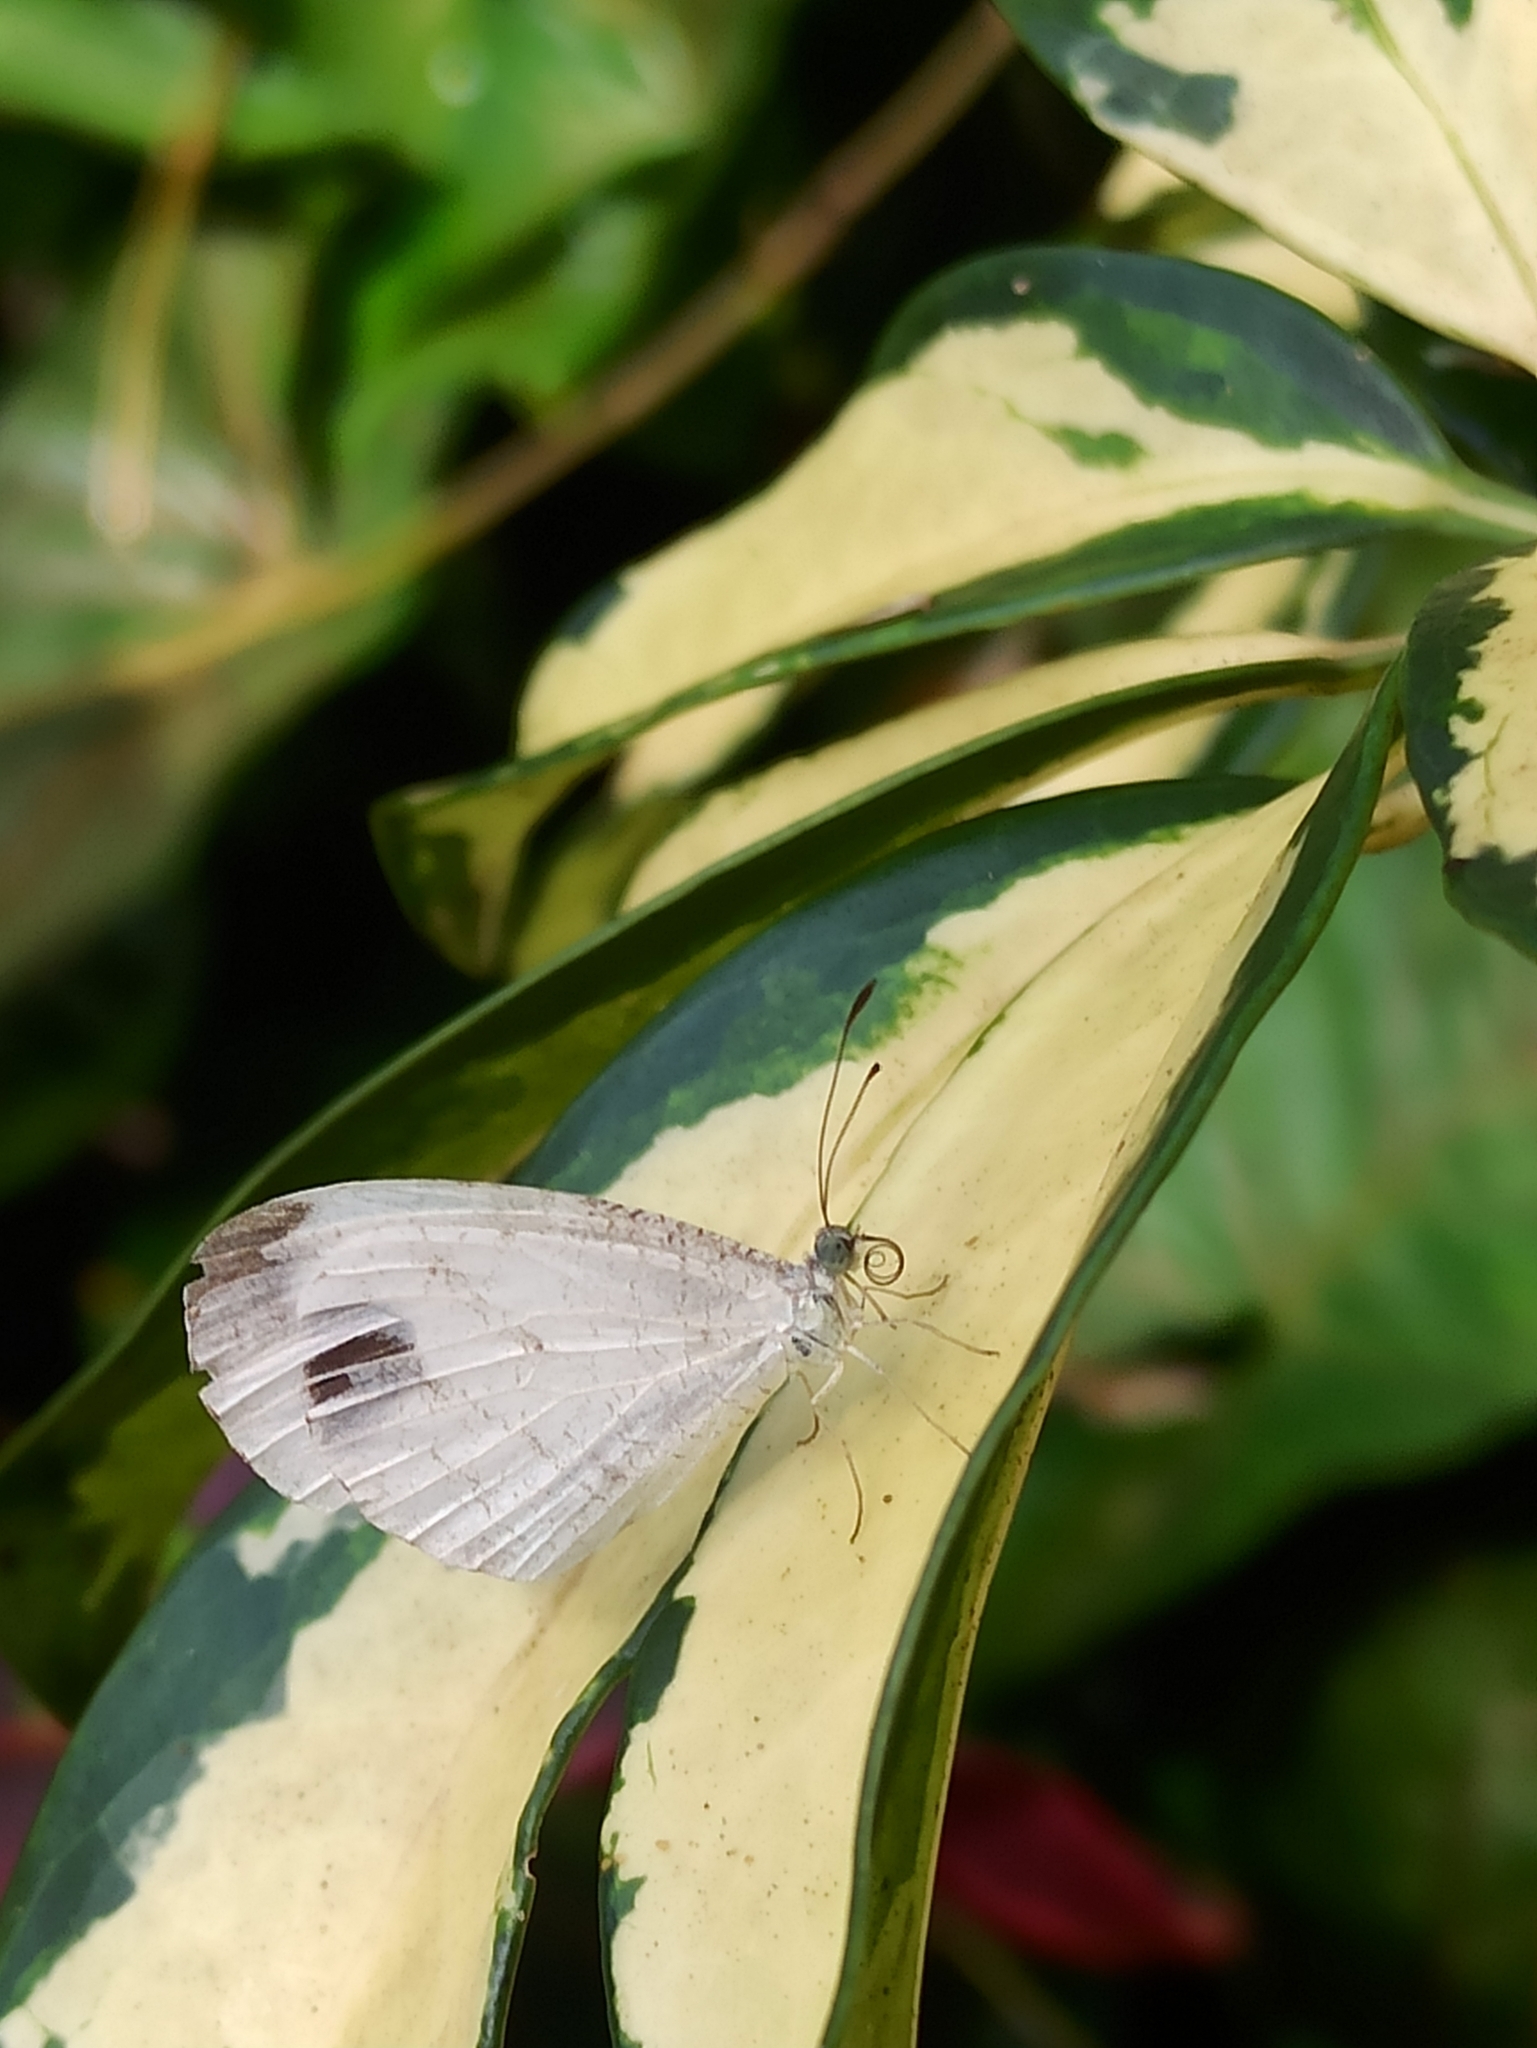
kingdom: Animalia
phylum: Arthropoda
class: Insecta
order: Lepidoptera
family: Pieridae
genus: Leptosia
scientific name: Leptosia nina
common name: Psyche
